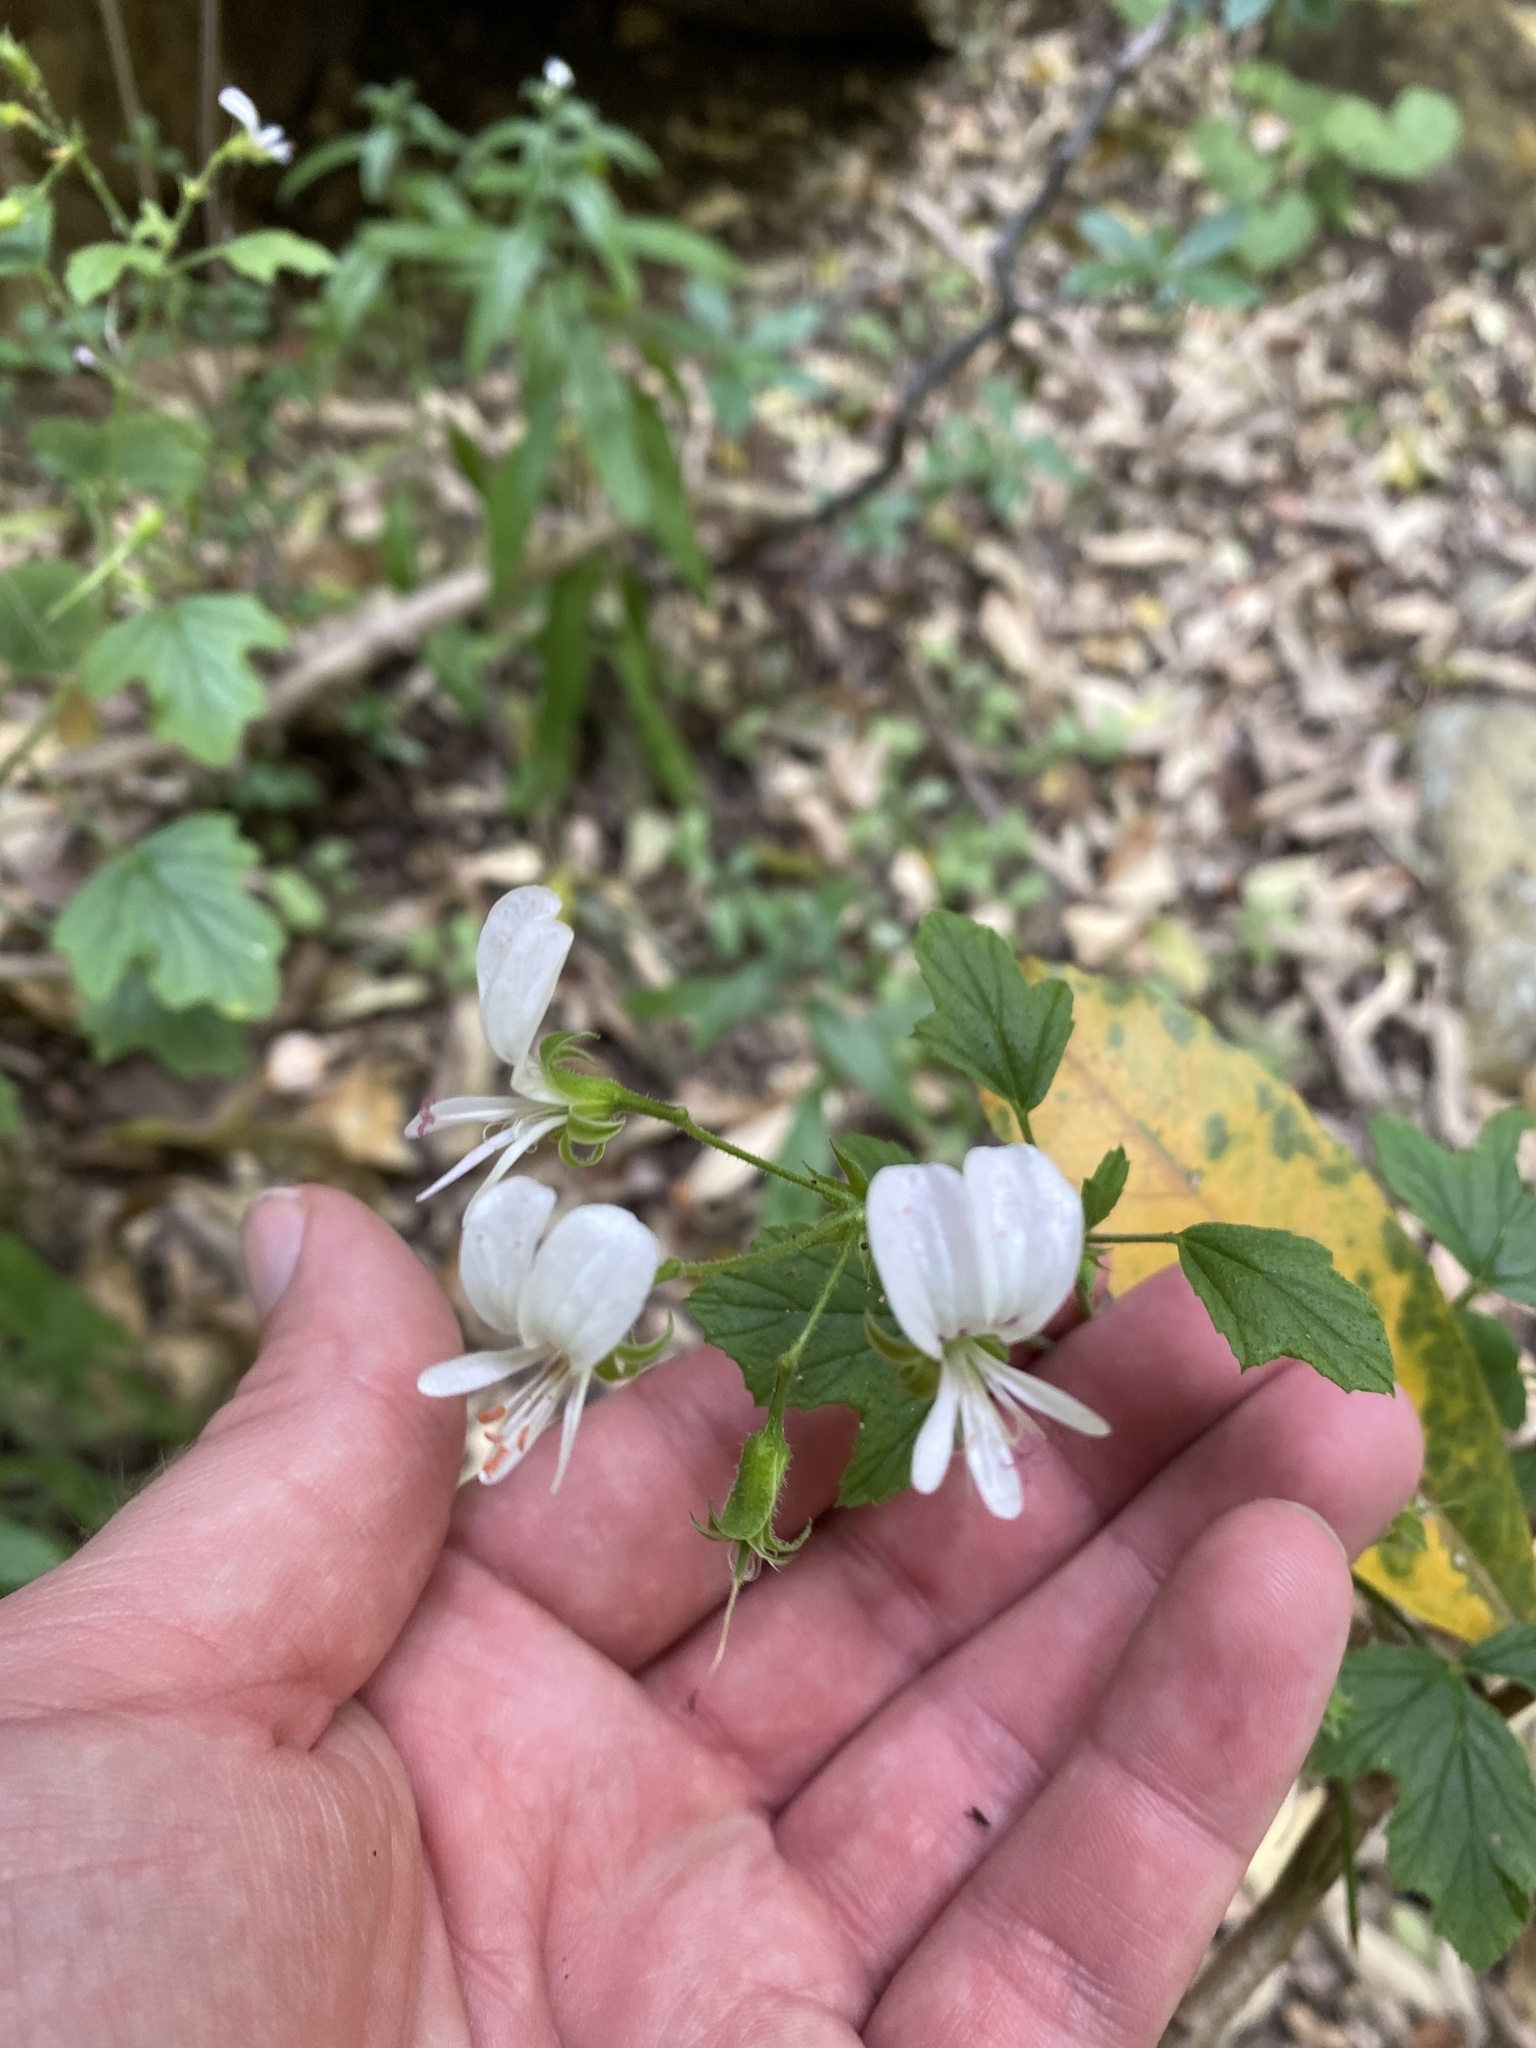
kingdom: Plantae
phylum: Tracheophyta
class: Magnoliopsida
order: Geraniales
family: Geraniaceae
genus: Pelargonium
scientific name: Pelargonium ribifolium
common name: Currant-leaf pelargonium
